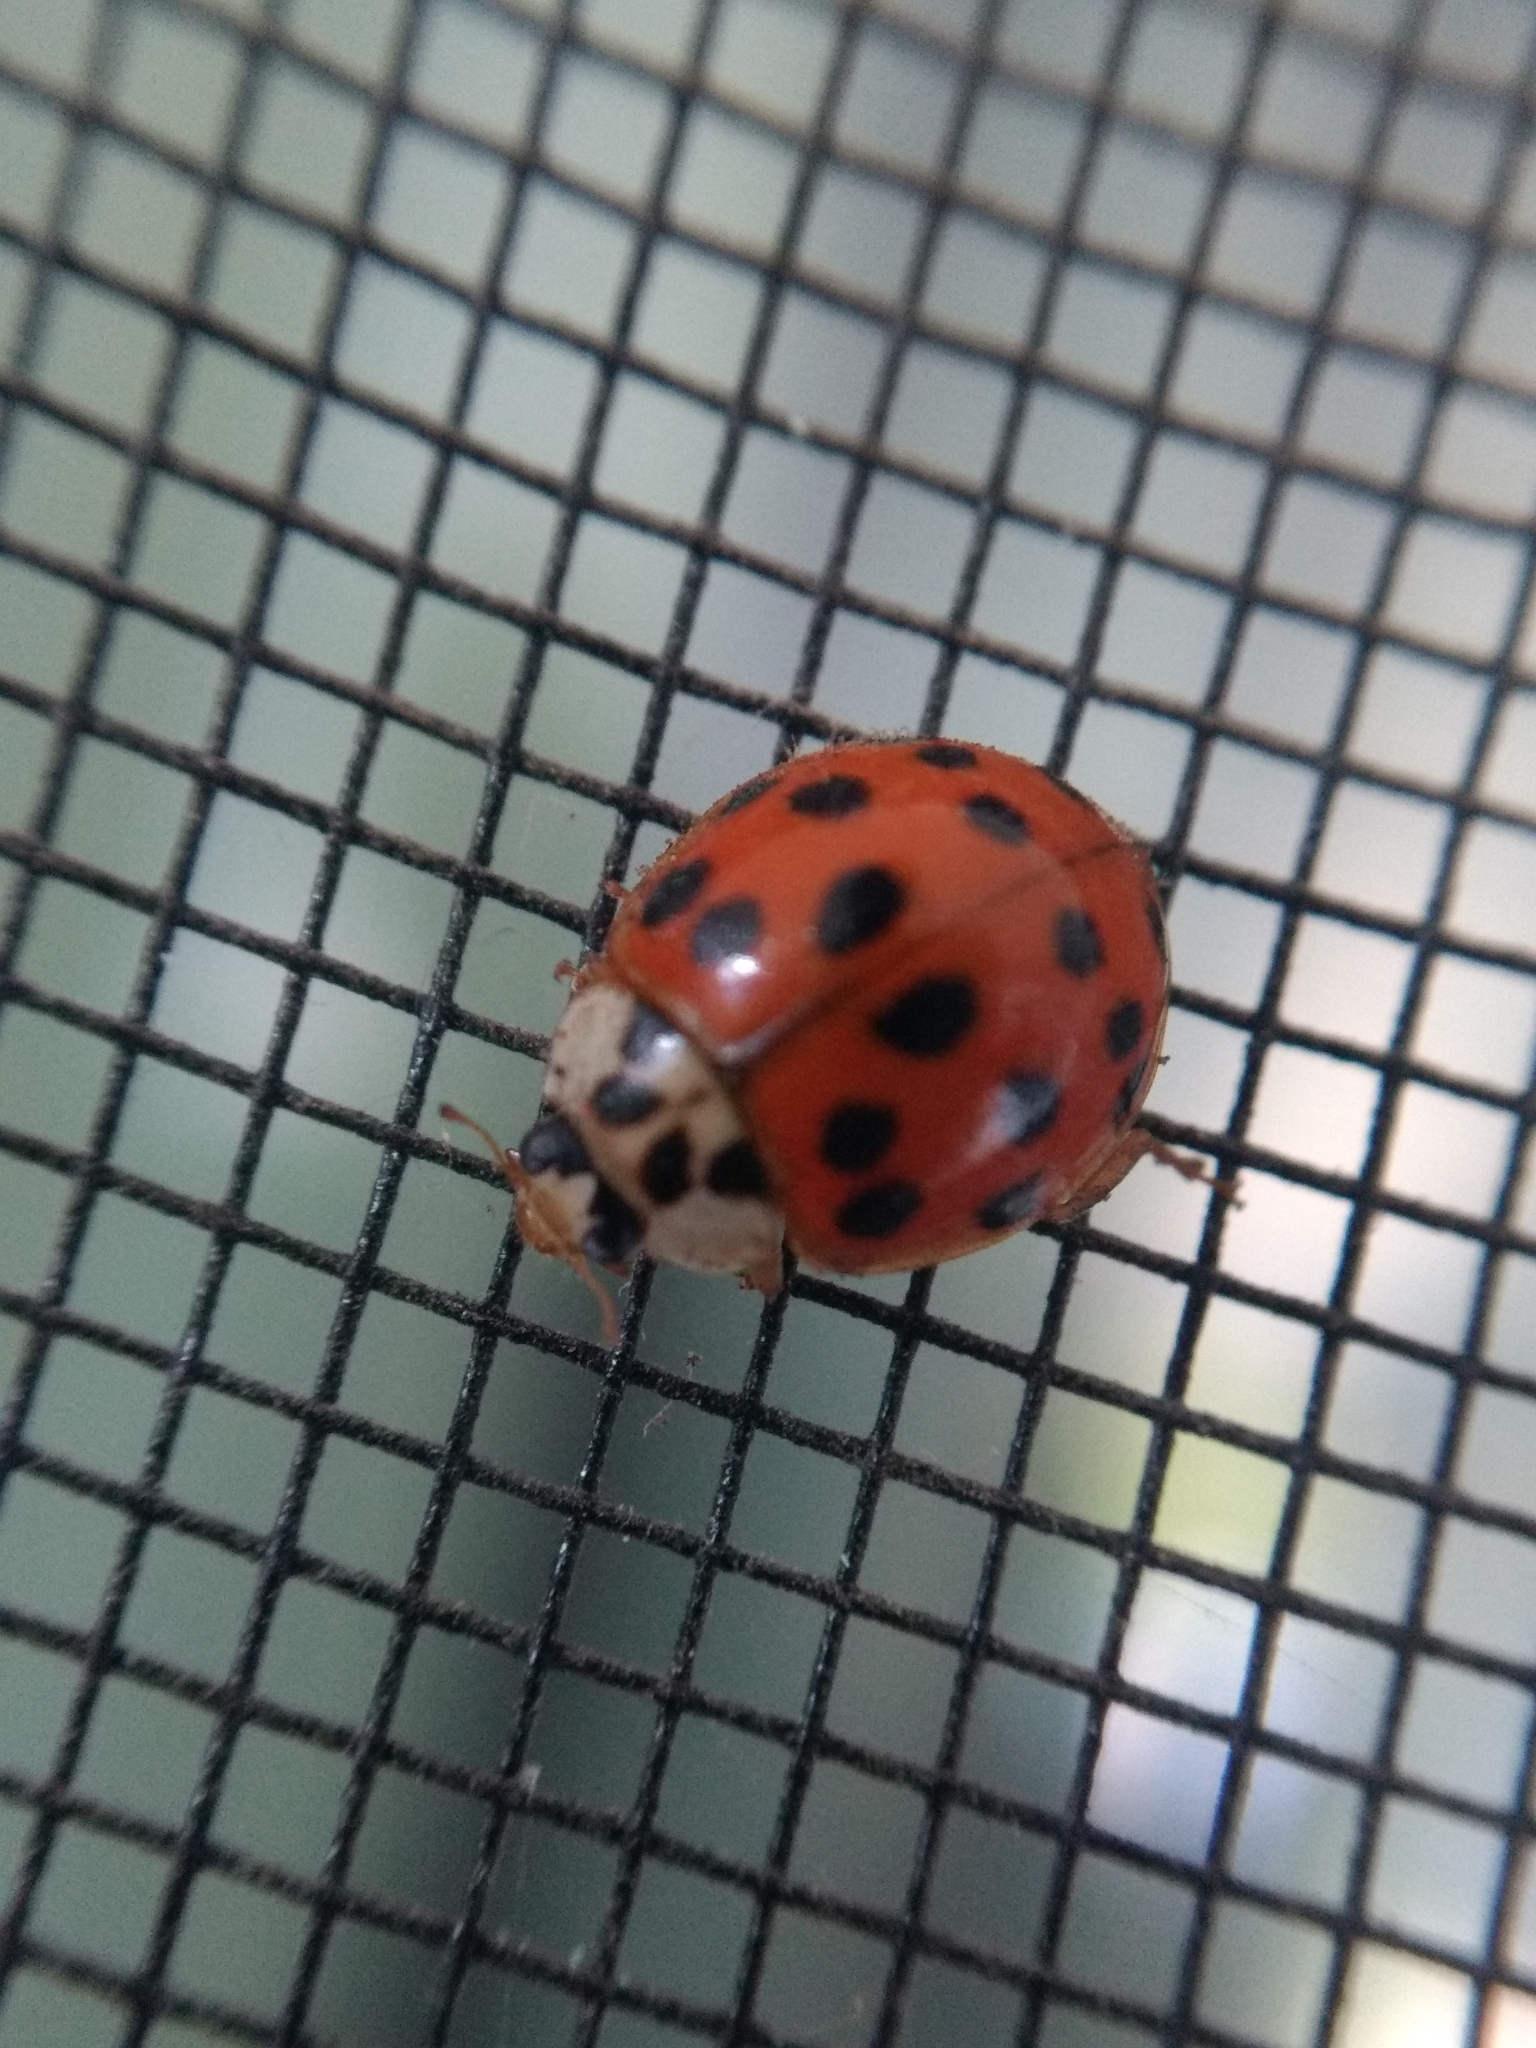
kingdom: Animalia
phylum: Arthropoda
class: Insecta
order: Coleoptera
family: Coccinellidae
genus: Harmonia
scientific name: Harmonia axyridis
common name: Harlequin ladybird
